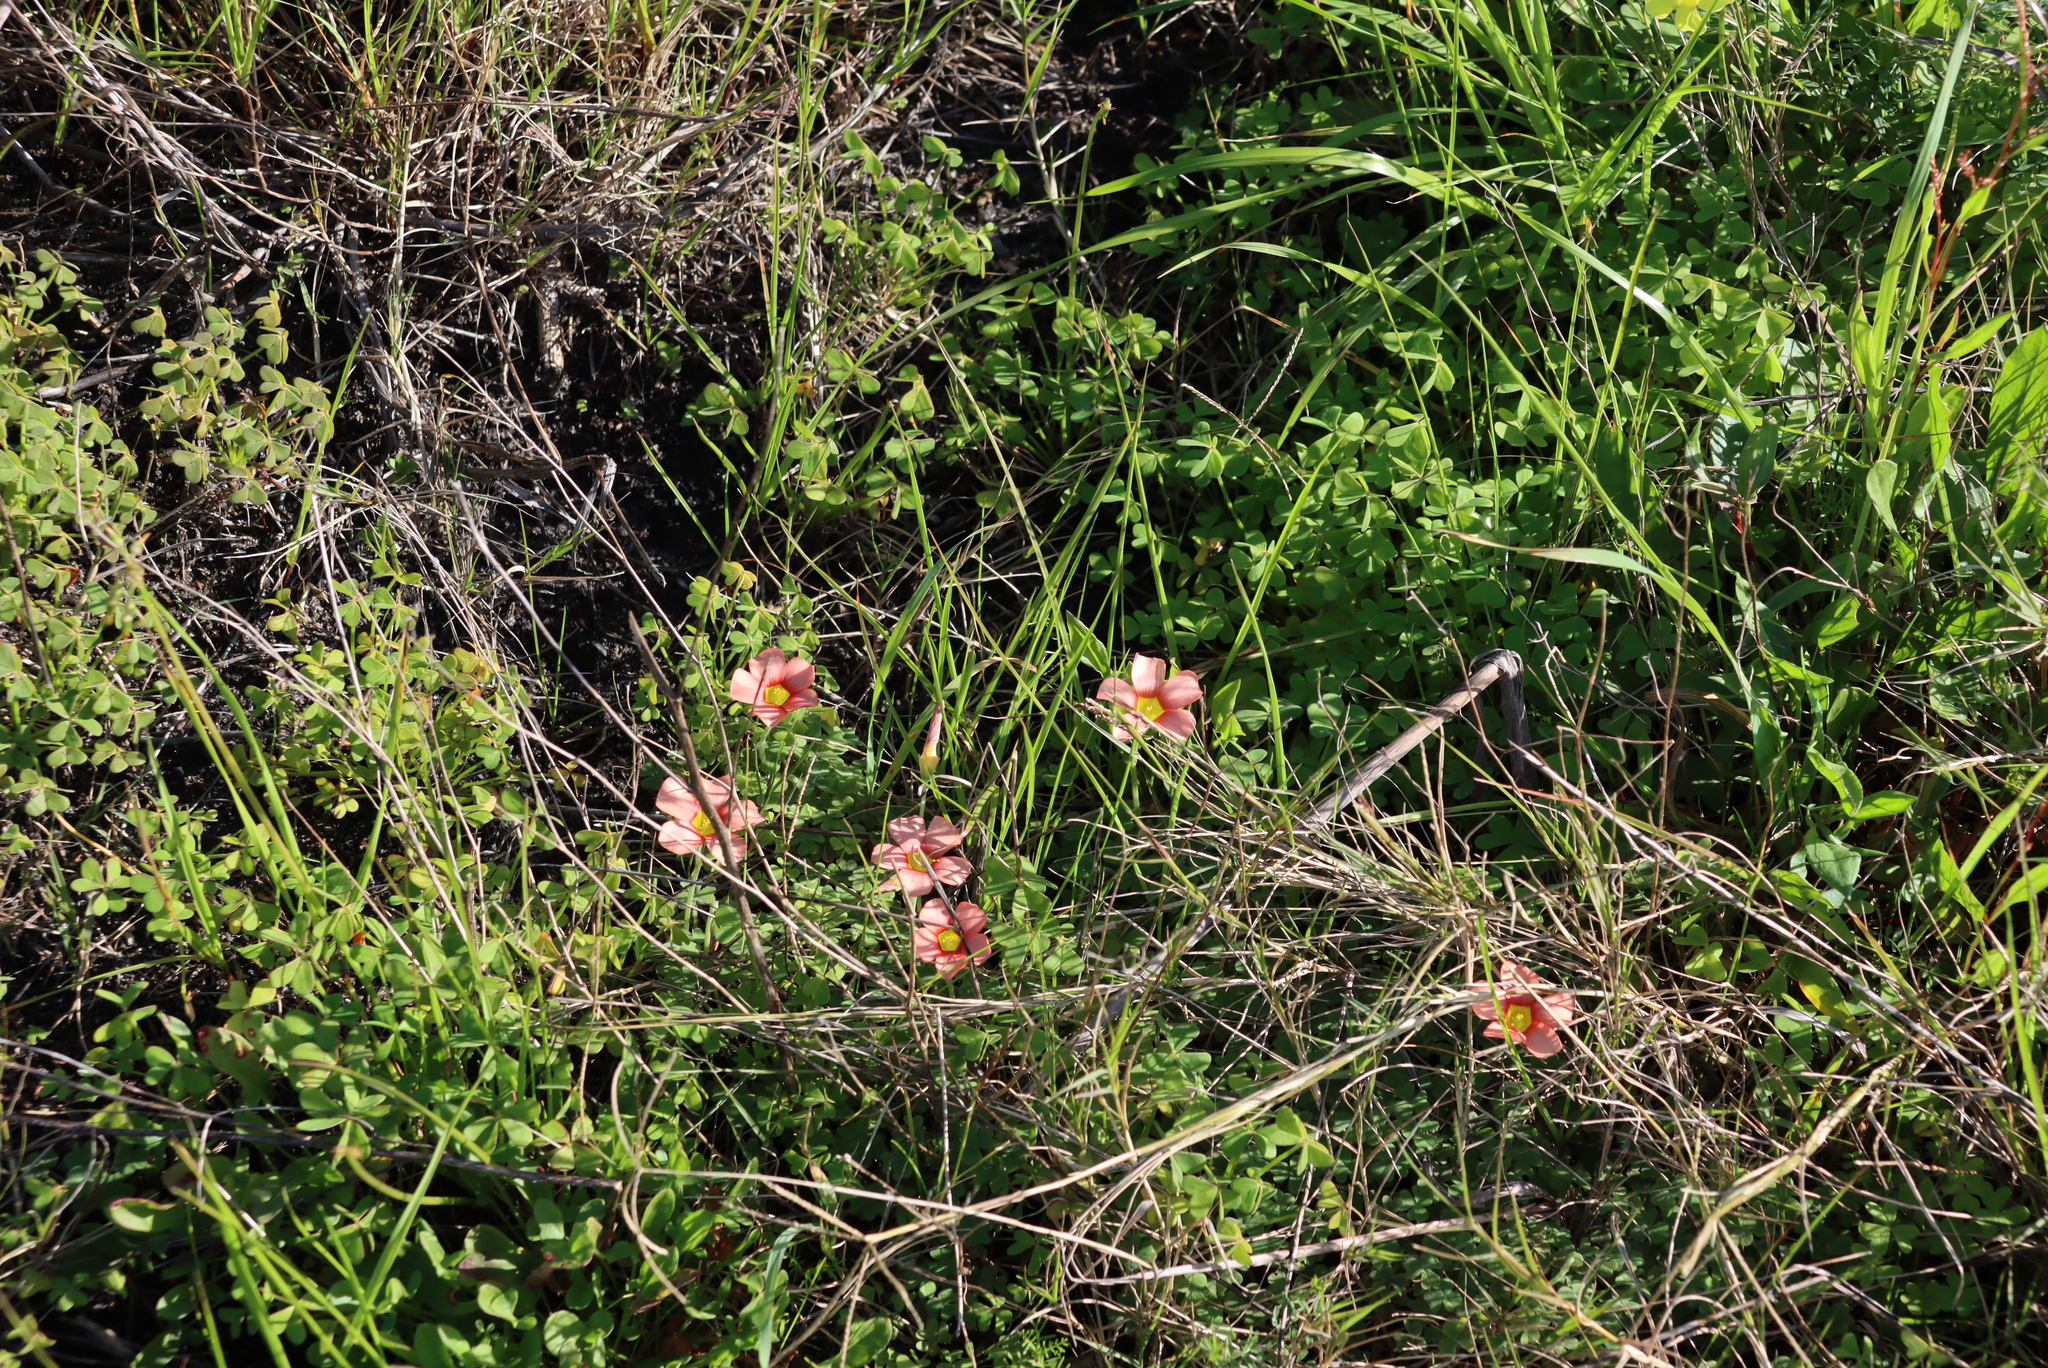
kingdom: Plantae
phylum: Tracheophyta
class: Magnoliopsida
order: Oxalidales
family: Oxalidaceae
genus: Oxalis
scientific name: Oxalis obtusa
